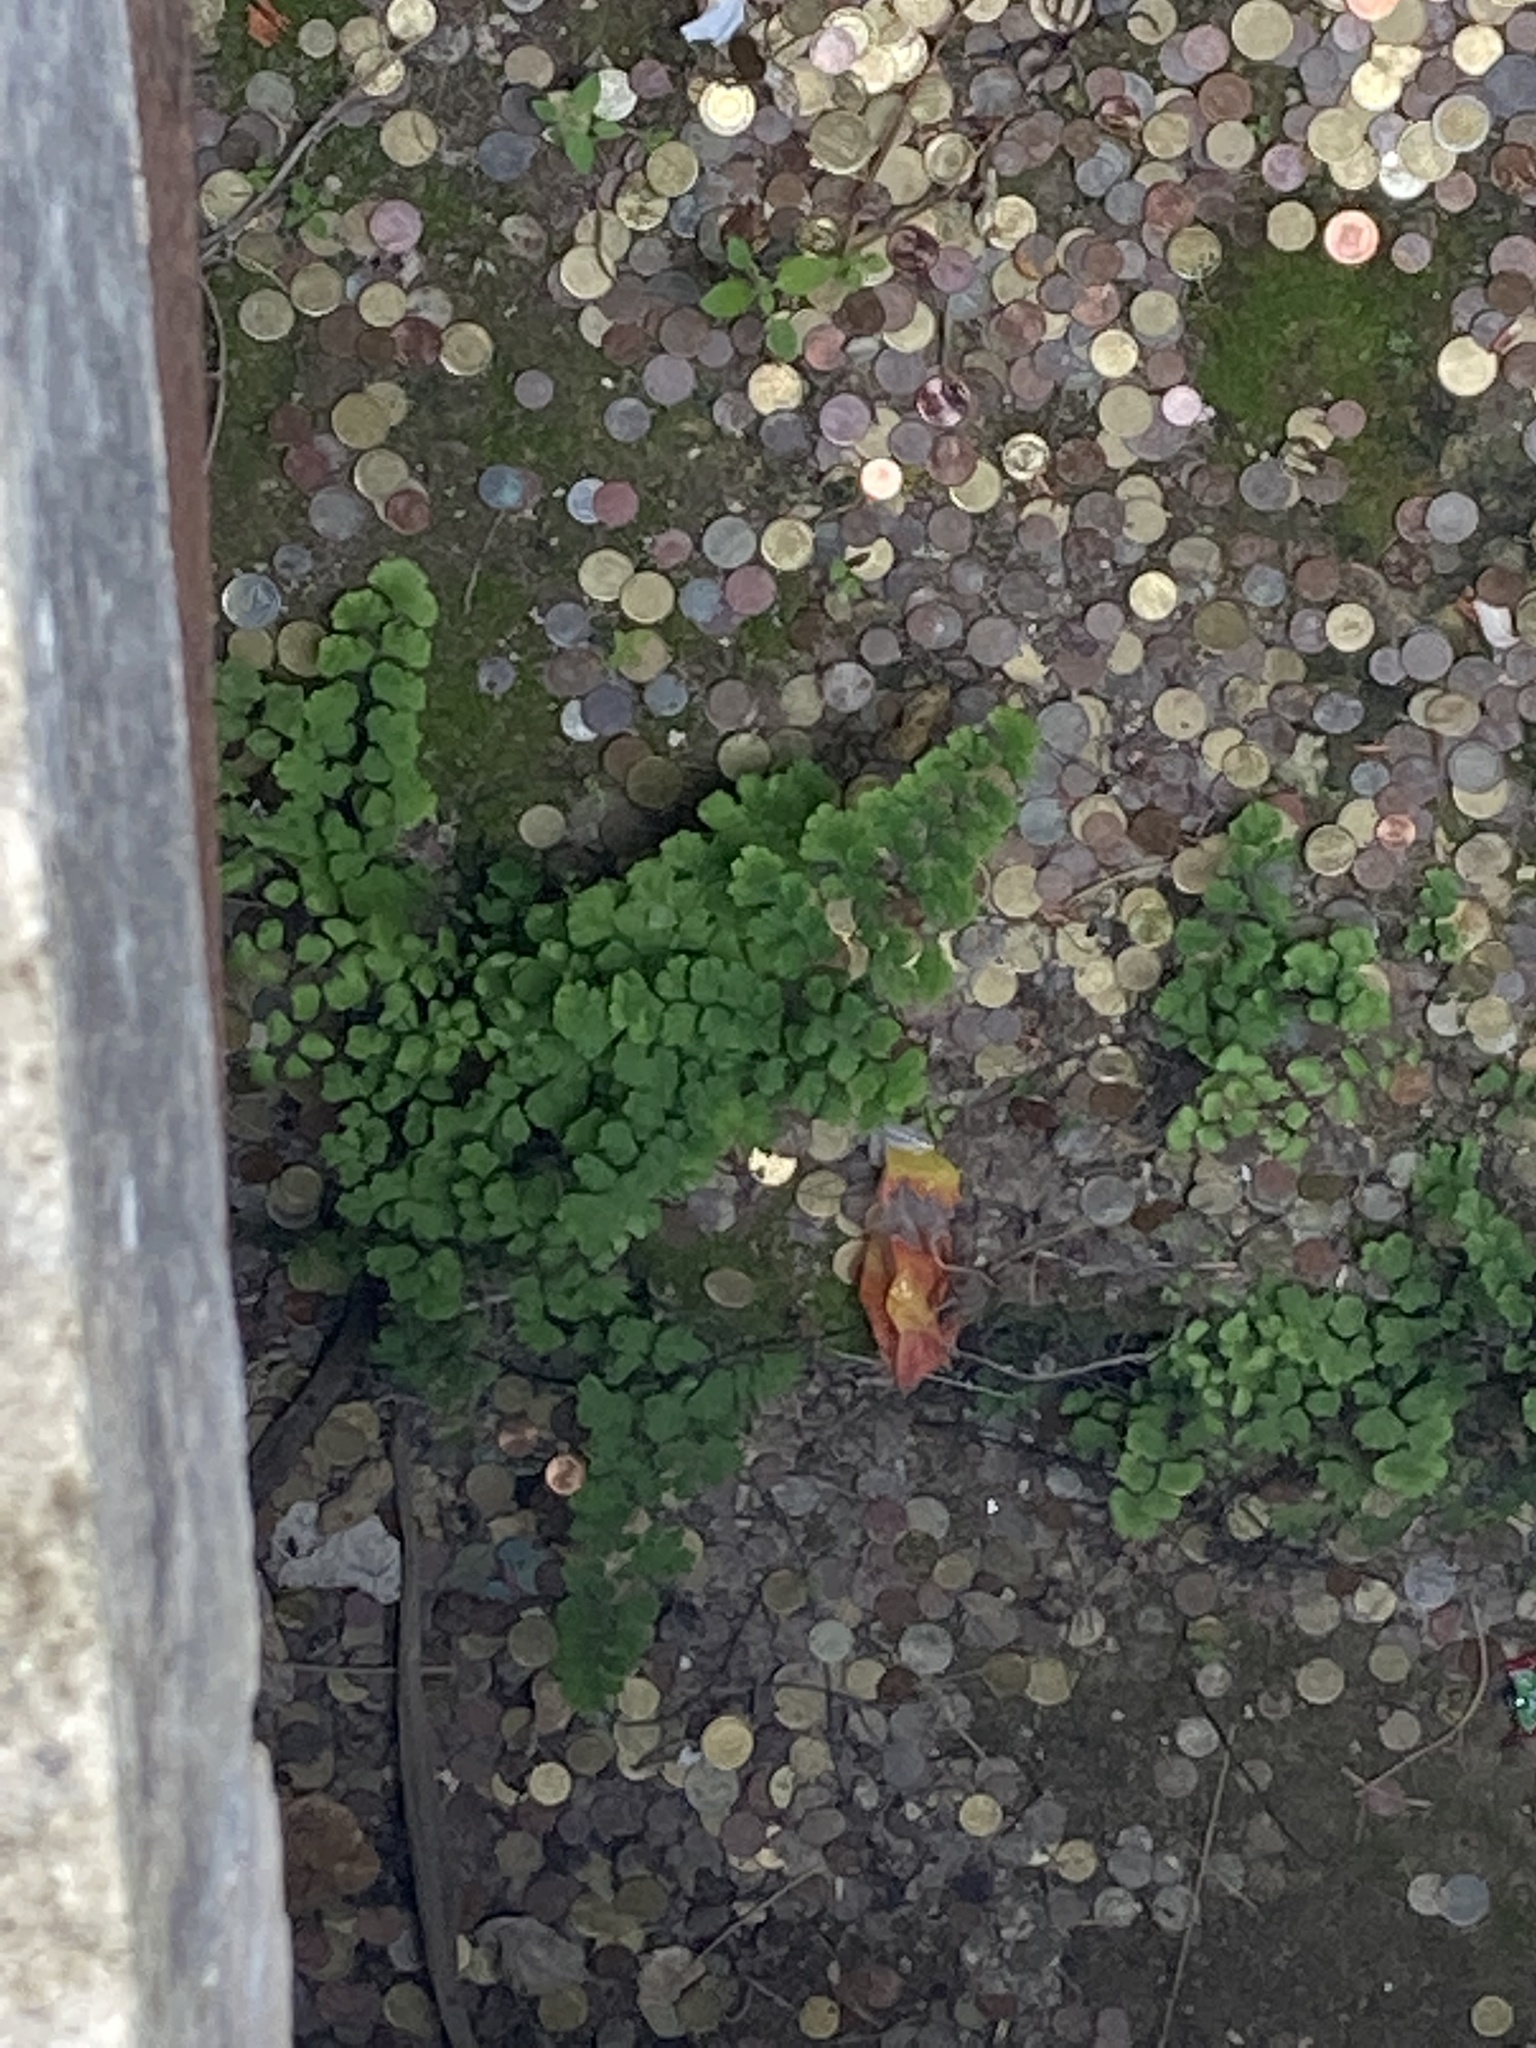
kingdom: Plantae
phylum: Tracheophyta
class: Polypodiopsida
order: Polypodiales
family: Pteridaceae
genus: Adiantum
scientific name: Adiantum capillus-veneris
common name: Maidenhair fern
